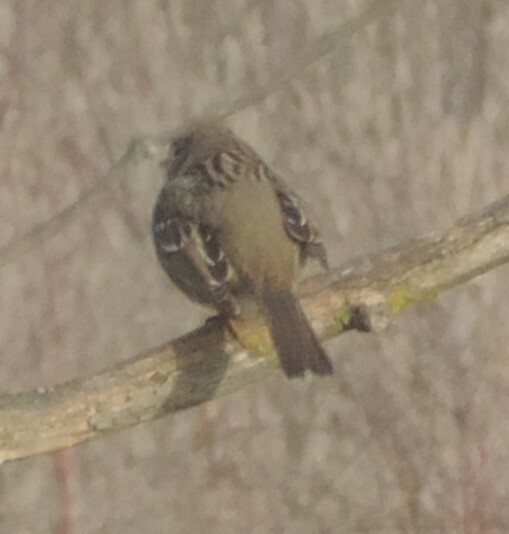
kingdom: Animalia
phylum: Chordata
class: Aves
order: Passeriformes
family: Passerellidae
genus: Zonotrichia
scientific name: Zonotrichia leucophrys
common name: White-crowned sparrow
